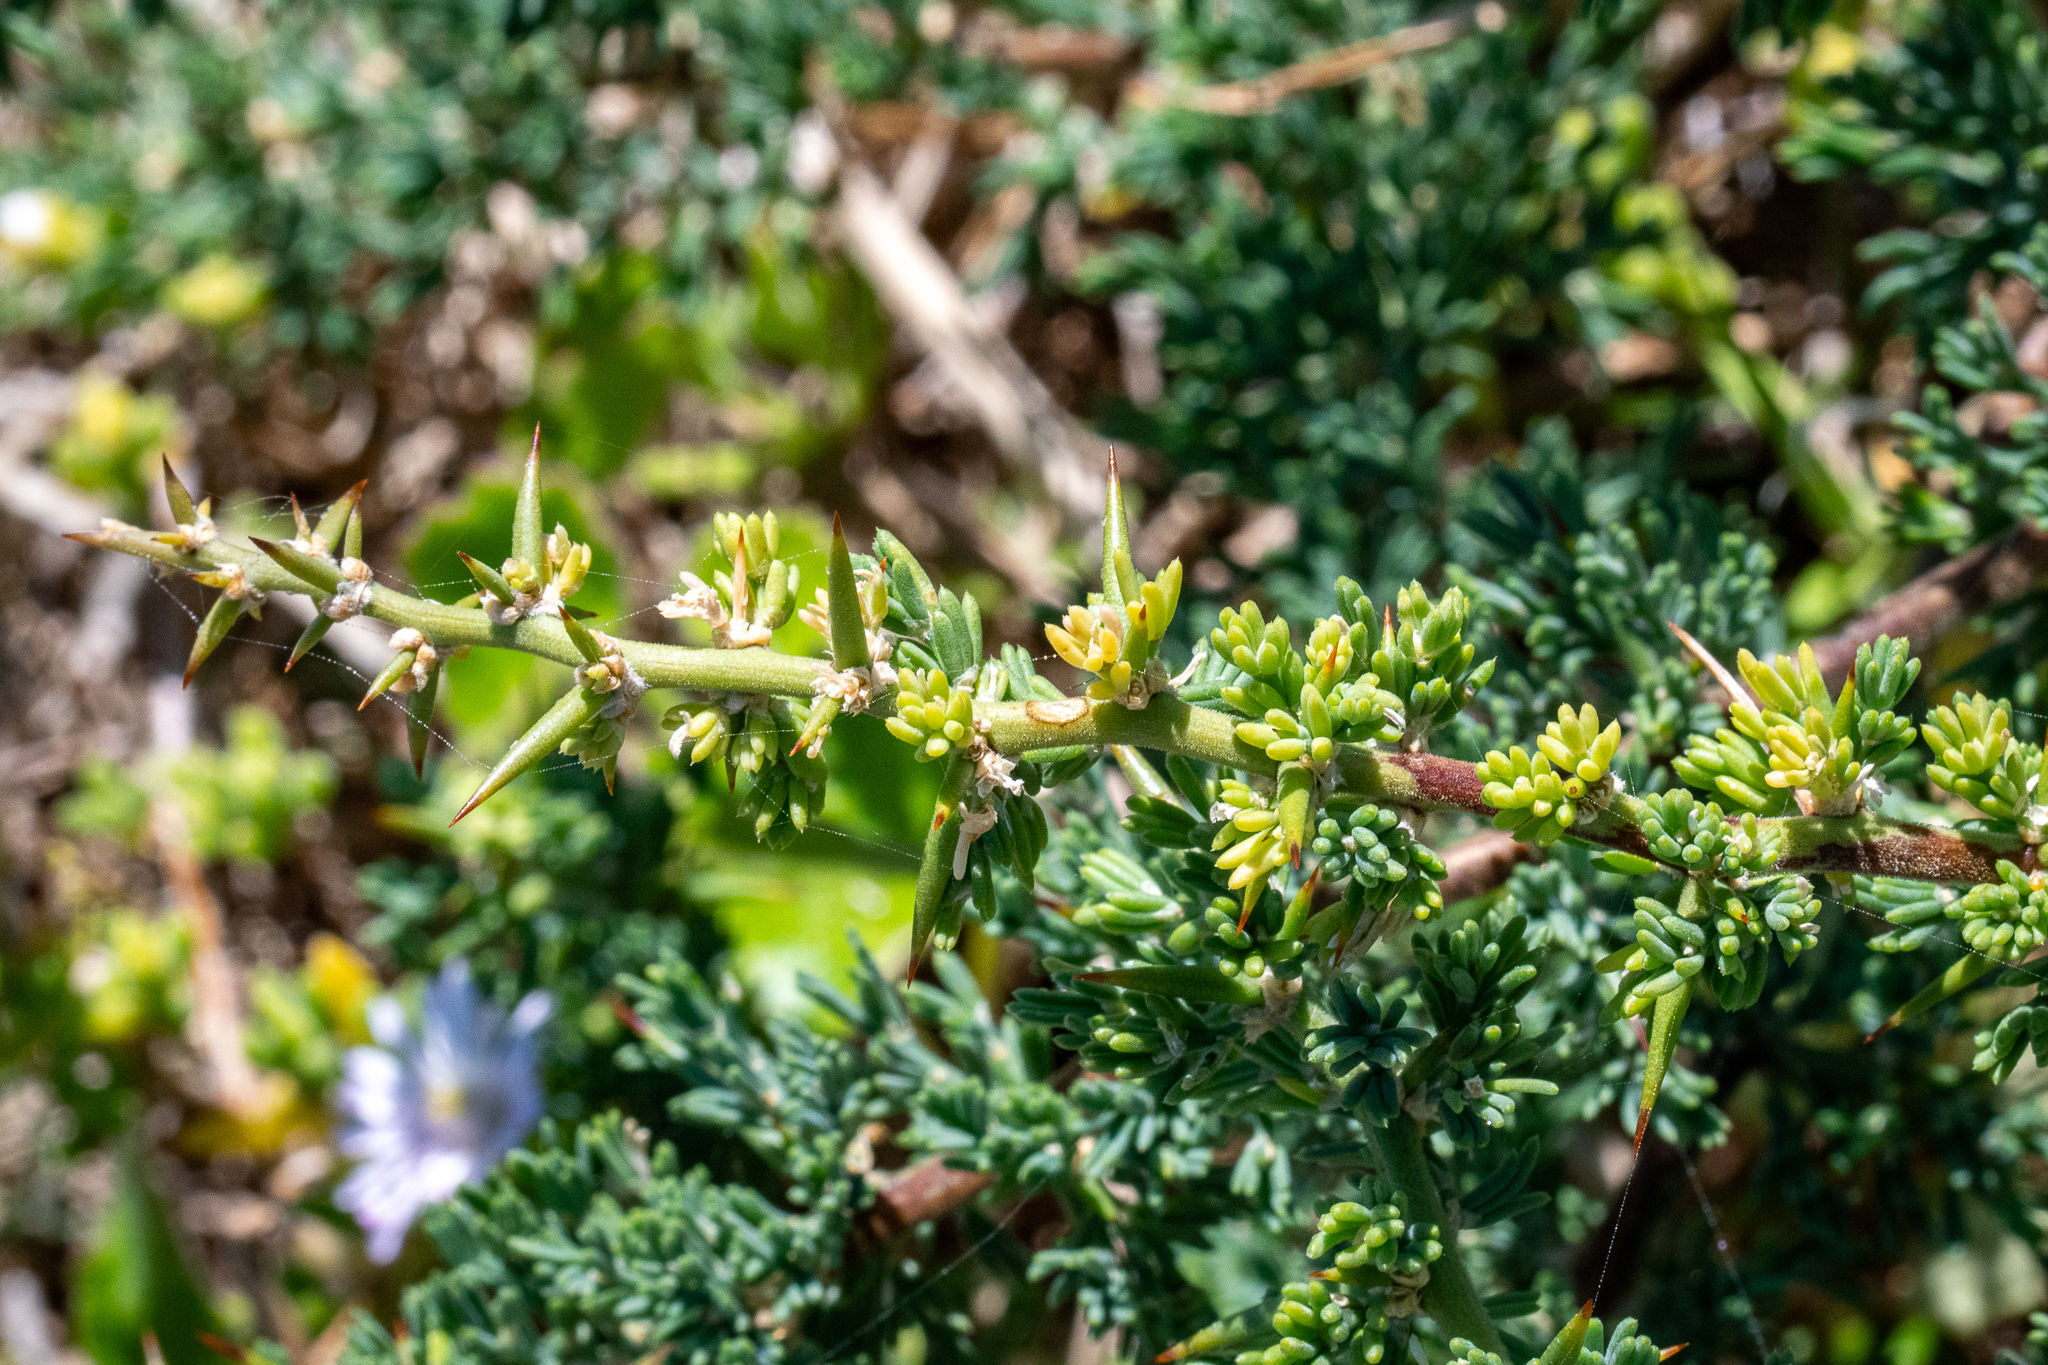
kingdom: Plantae
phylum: Tracheophyta
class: Liliopsida
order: Asparagales
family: Asparagaceae
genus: Asparagus
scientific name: Asparagus capensis
